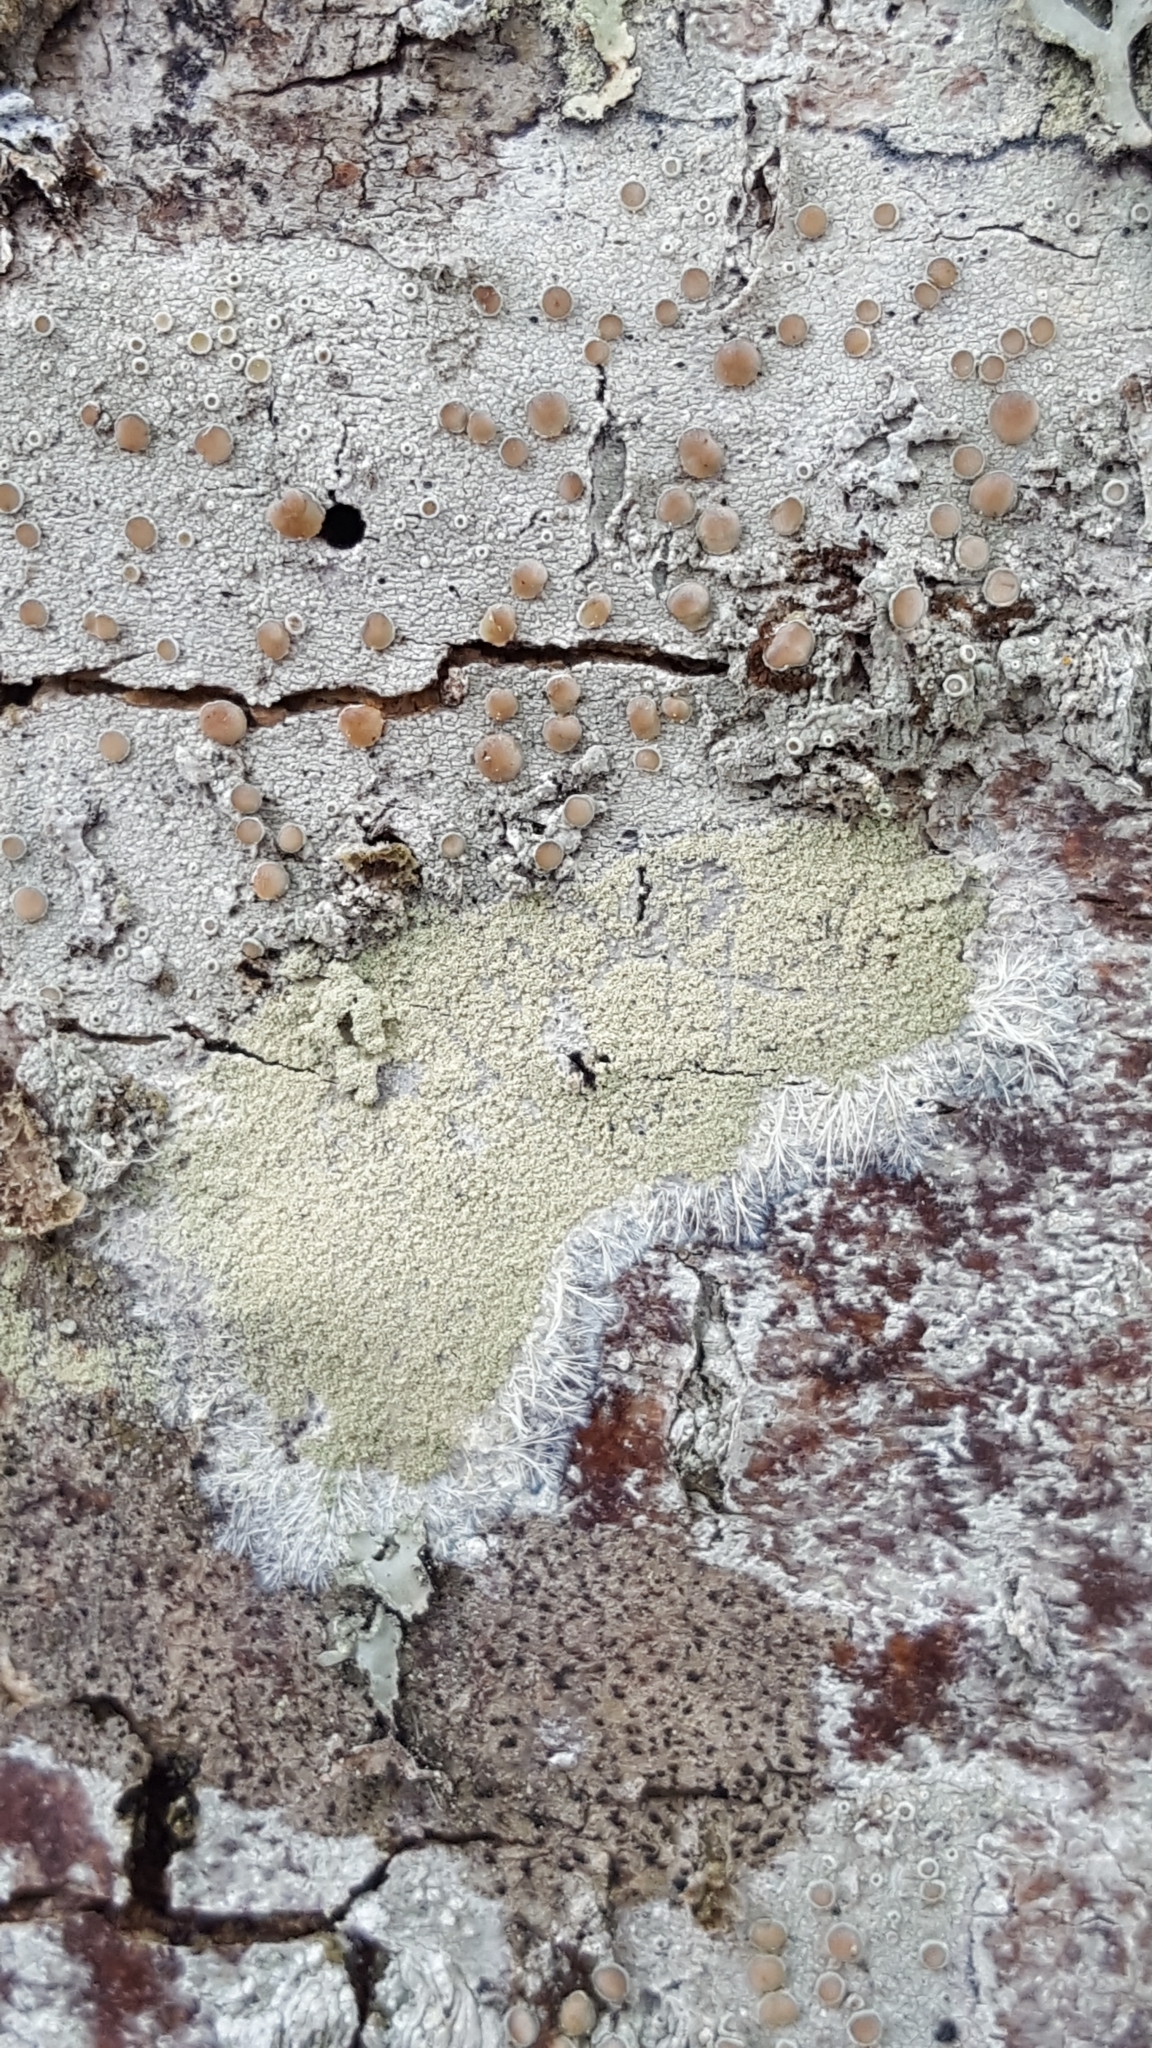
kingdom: Fungi
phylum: Ascomycota
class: Lecanoromycetes
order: Pertusariales
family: Pertusariaceae
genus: Verseghya
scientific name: Verseghya thysanophora
